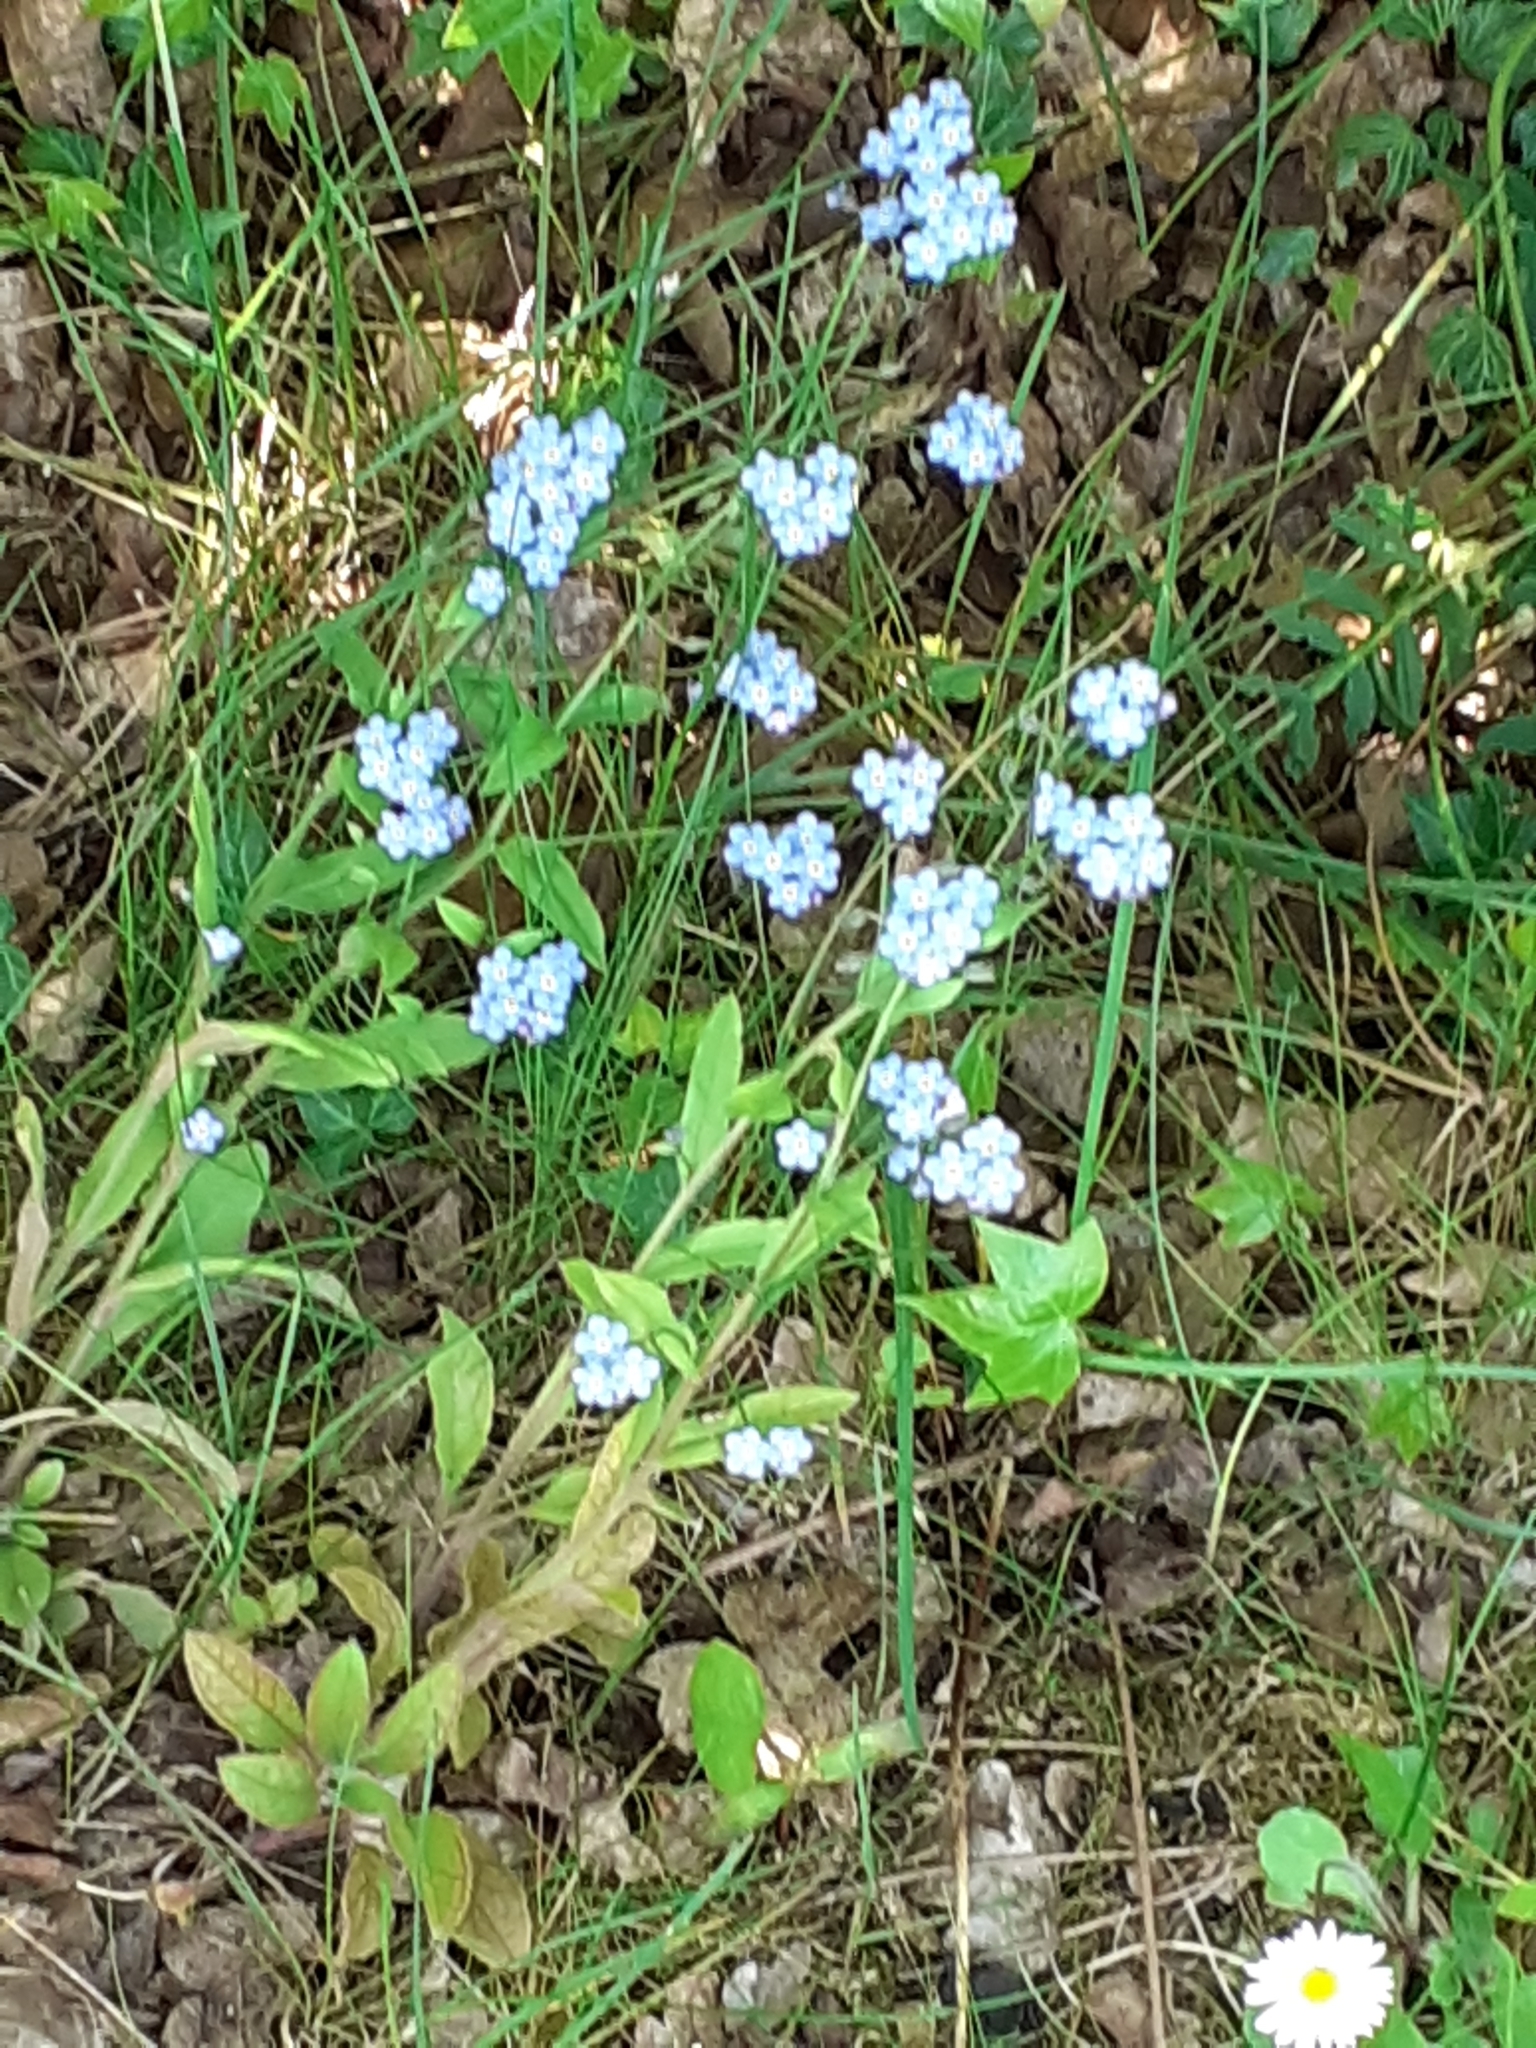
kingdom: Plantae
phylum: Tracheophyta
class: Magnoliopsida
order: Boraginales
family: Boraginaceae
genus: Myosotis
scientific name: Myosotis sylvatica
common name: Wood forget-me-not
